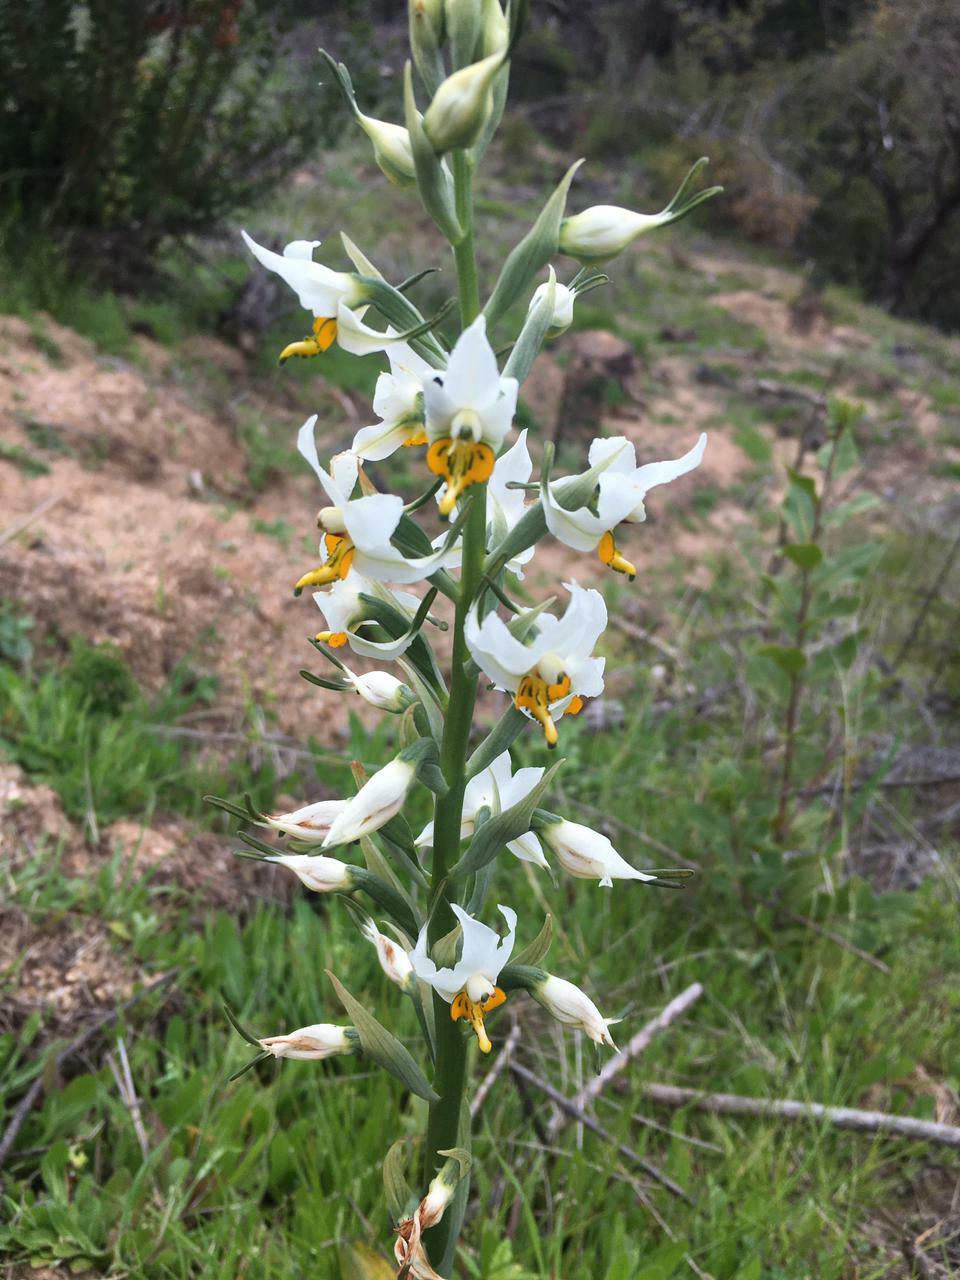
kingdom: Plantae
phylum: Tracheophyta
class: Liliopsida
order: Asparagales
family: Orchidaceae
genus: Gavilea
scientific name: Gavilea longibracteata
